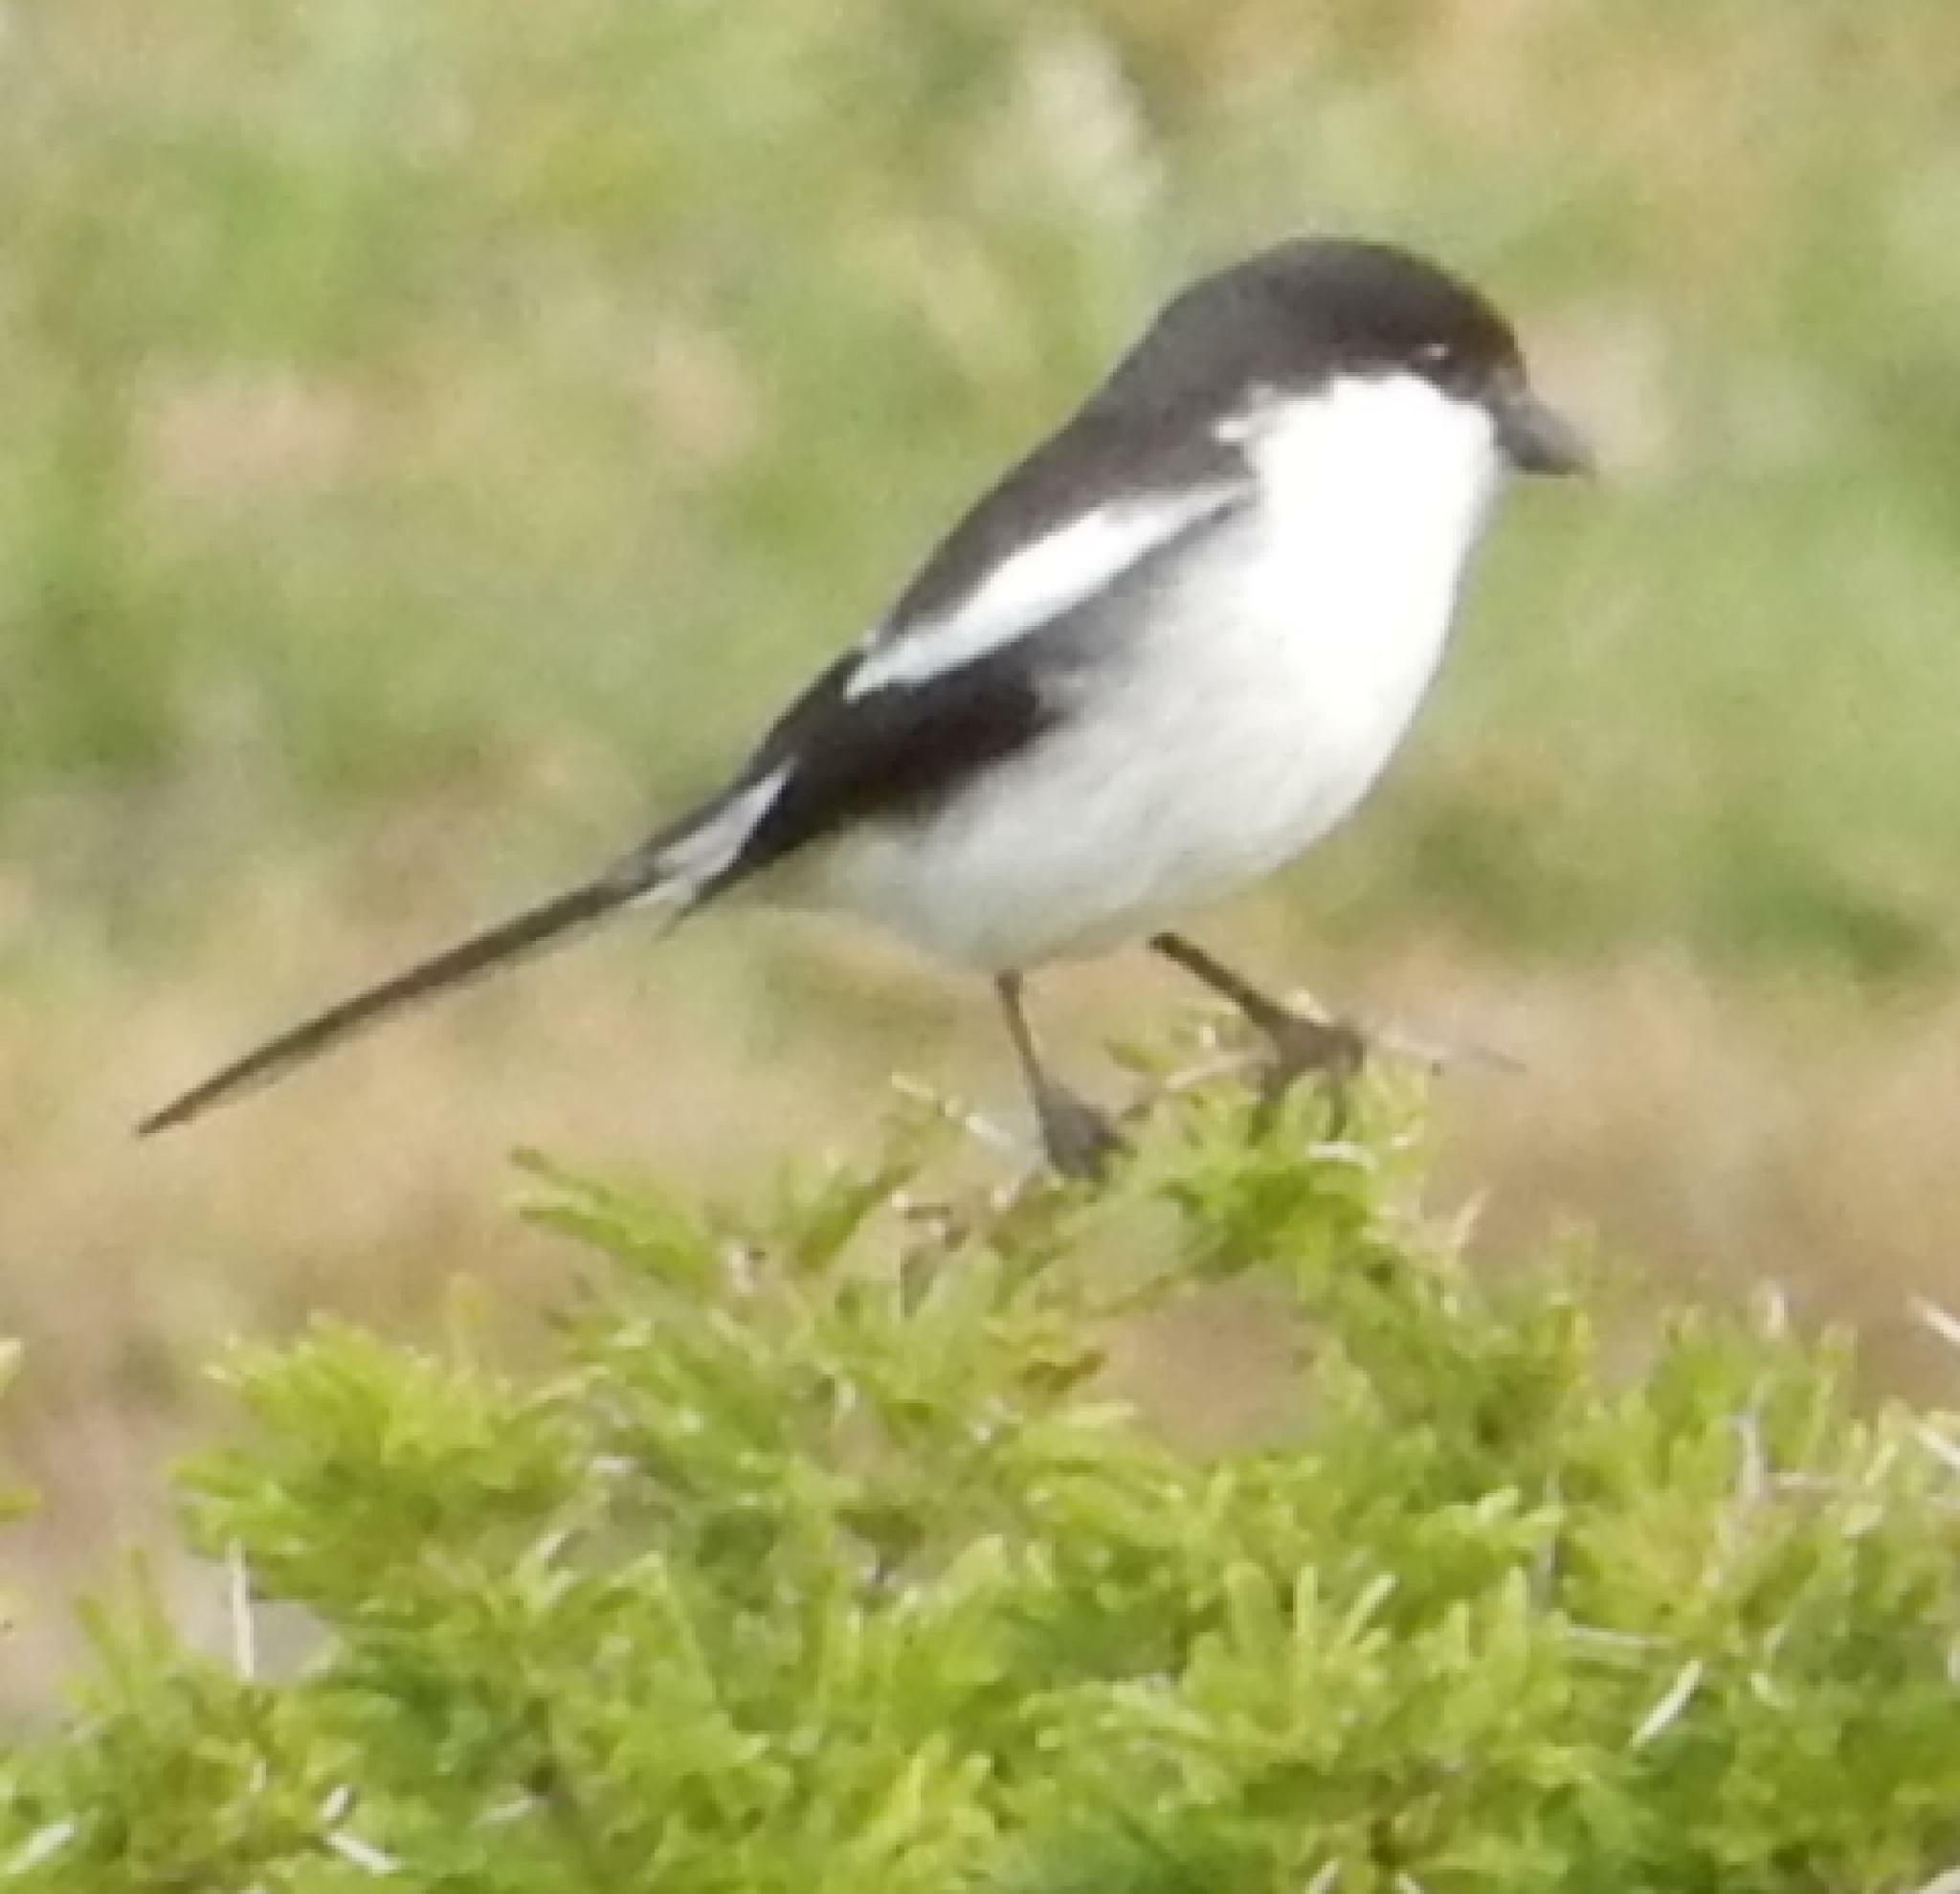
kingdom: Animalia
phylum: Chordata
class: Aves
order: Passeriformes
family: Laniidae
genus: Lanius
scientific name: Lanius collaris
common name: Southern fiscal
